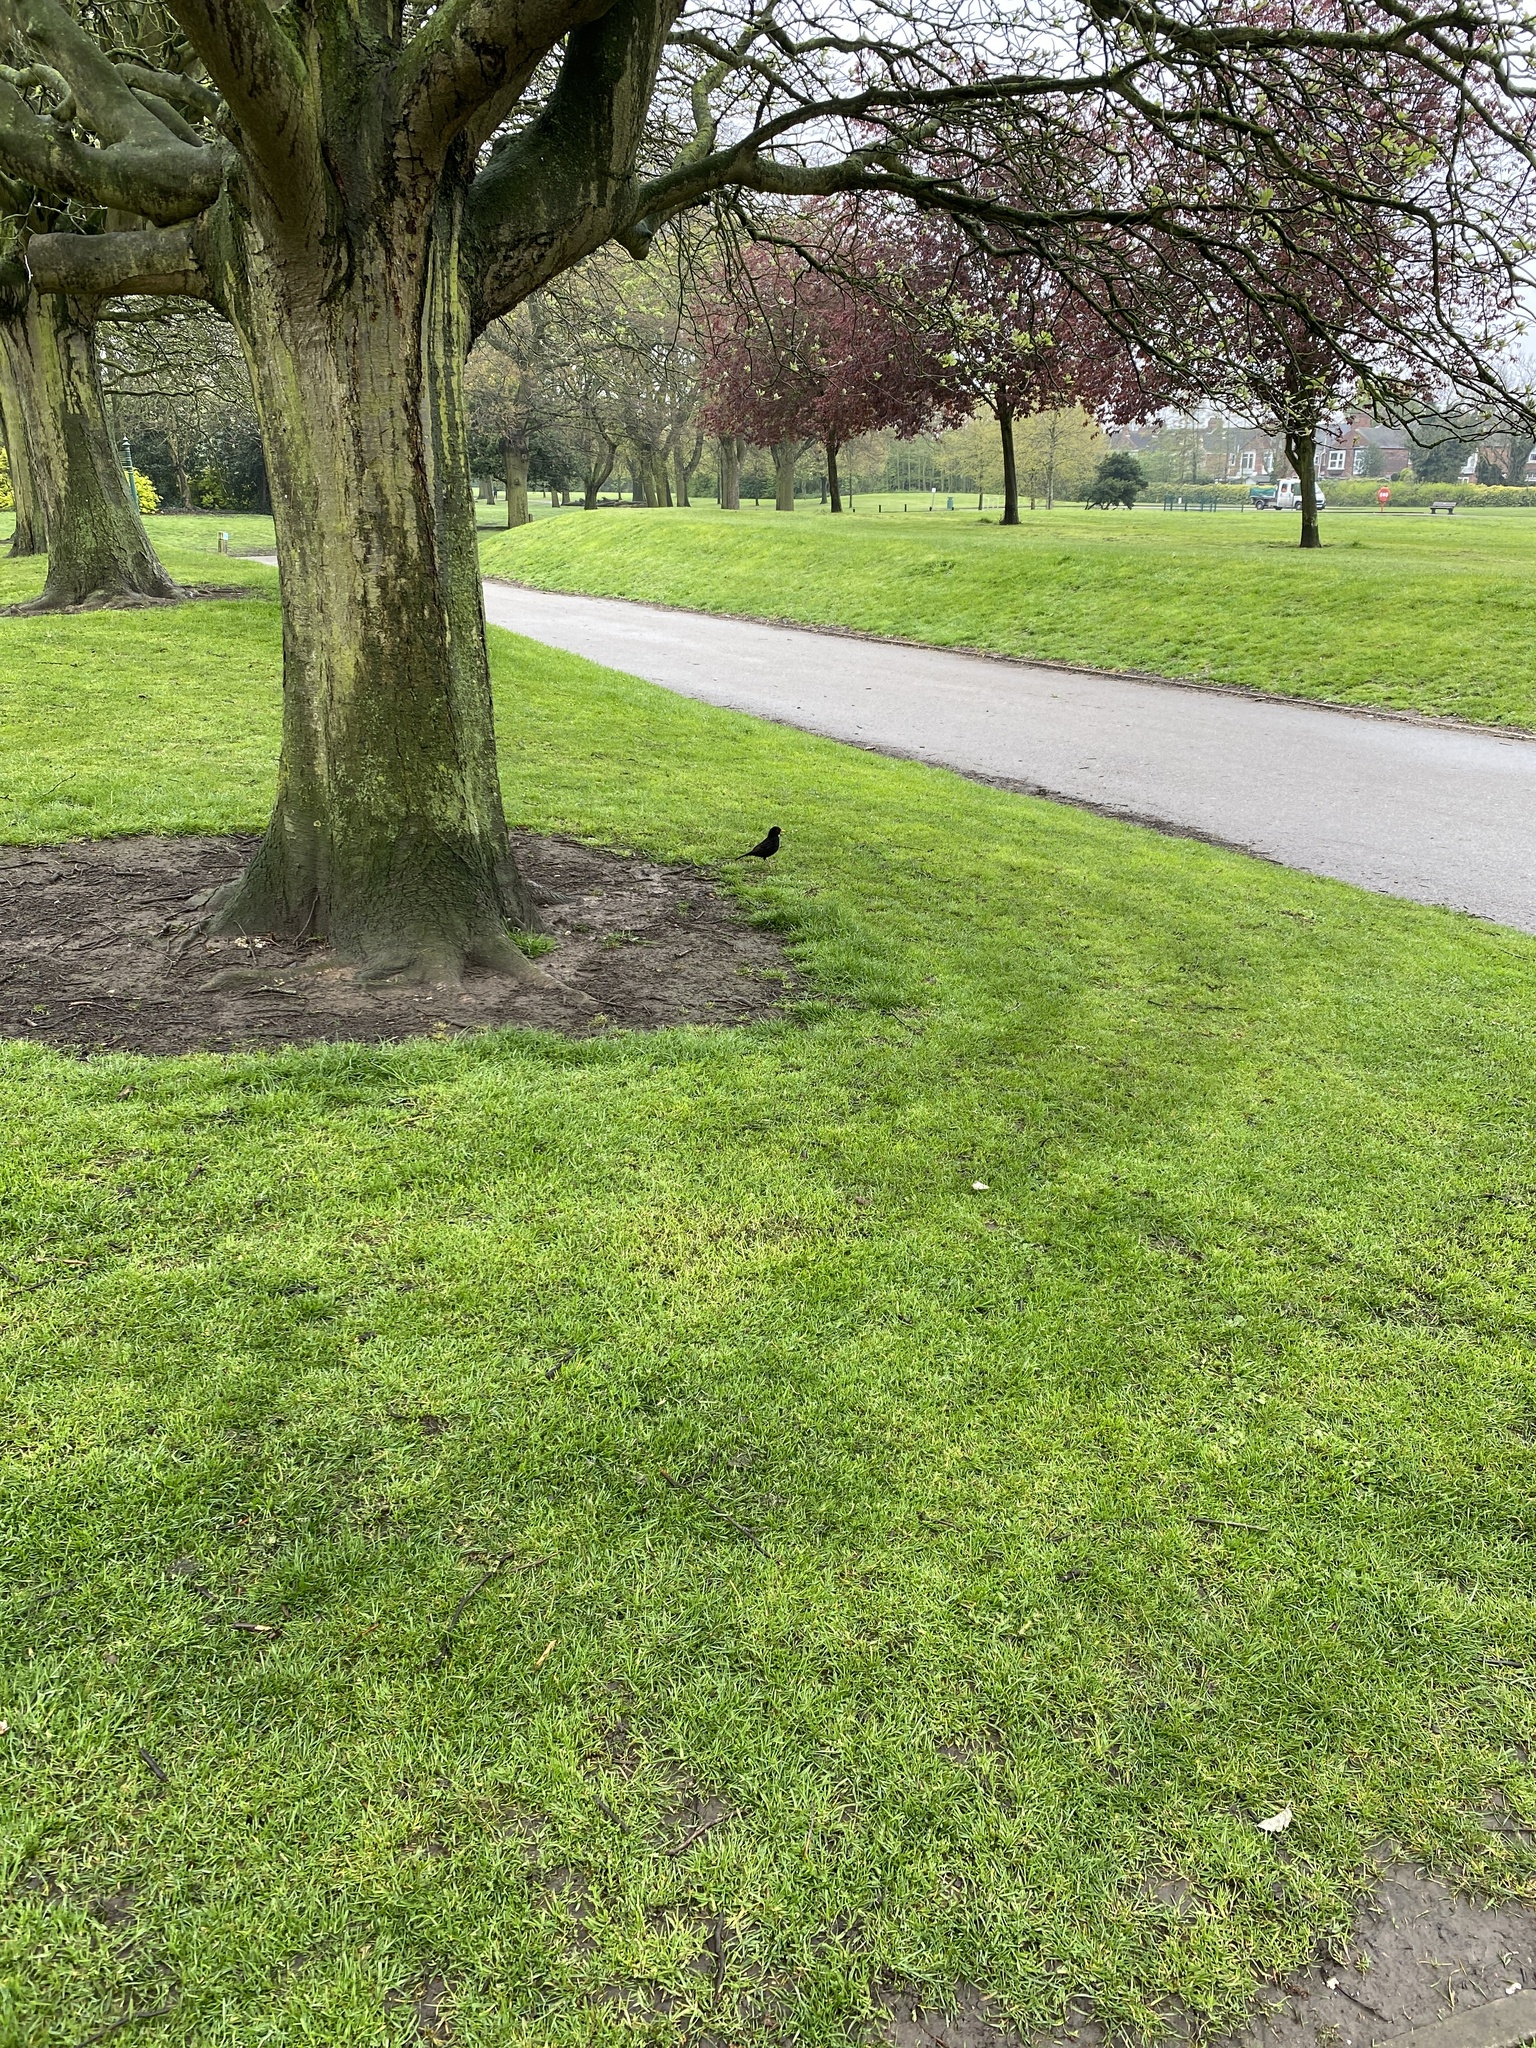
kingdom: Animalia
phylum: Chordata
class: Aves
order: Passeriformes
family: Turdidae
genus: Turdus
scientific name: Turdus merula
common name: Common blackbird
